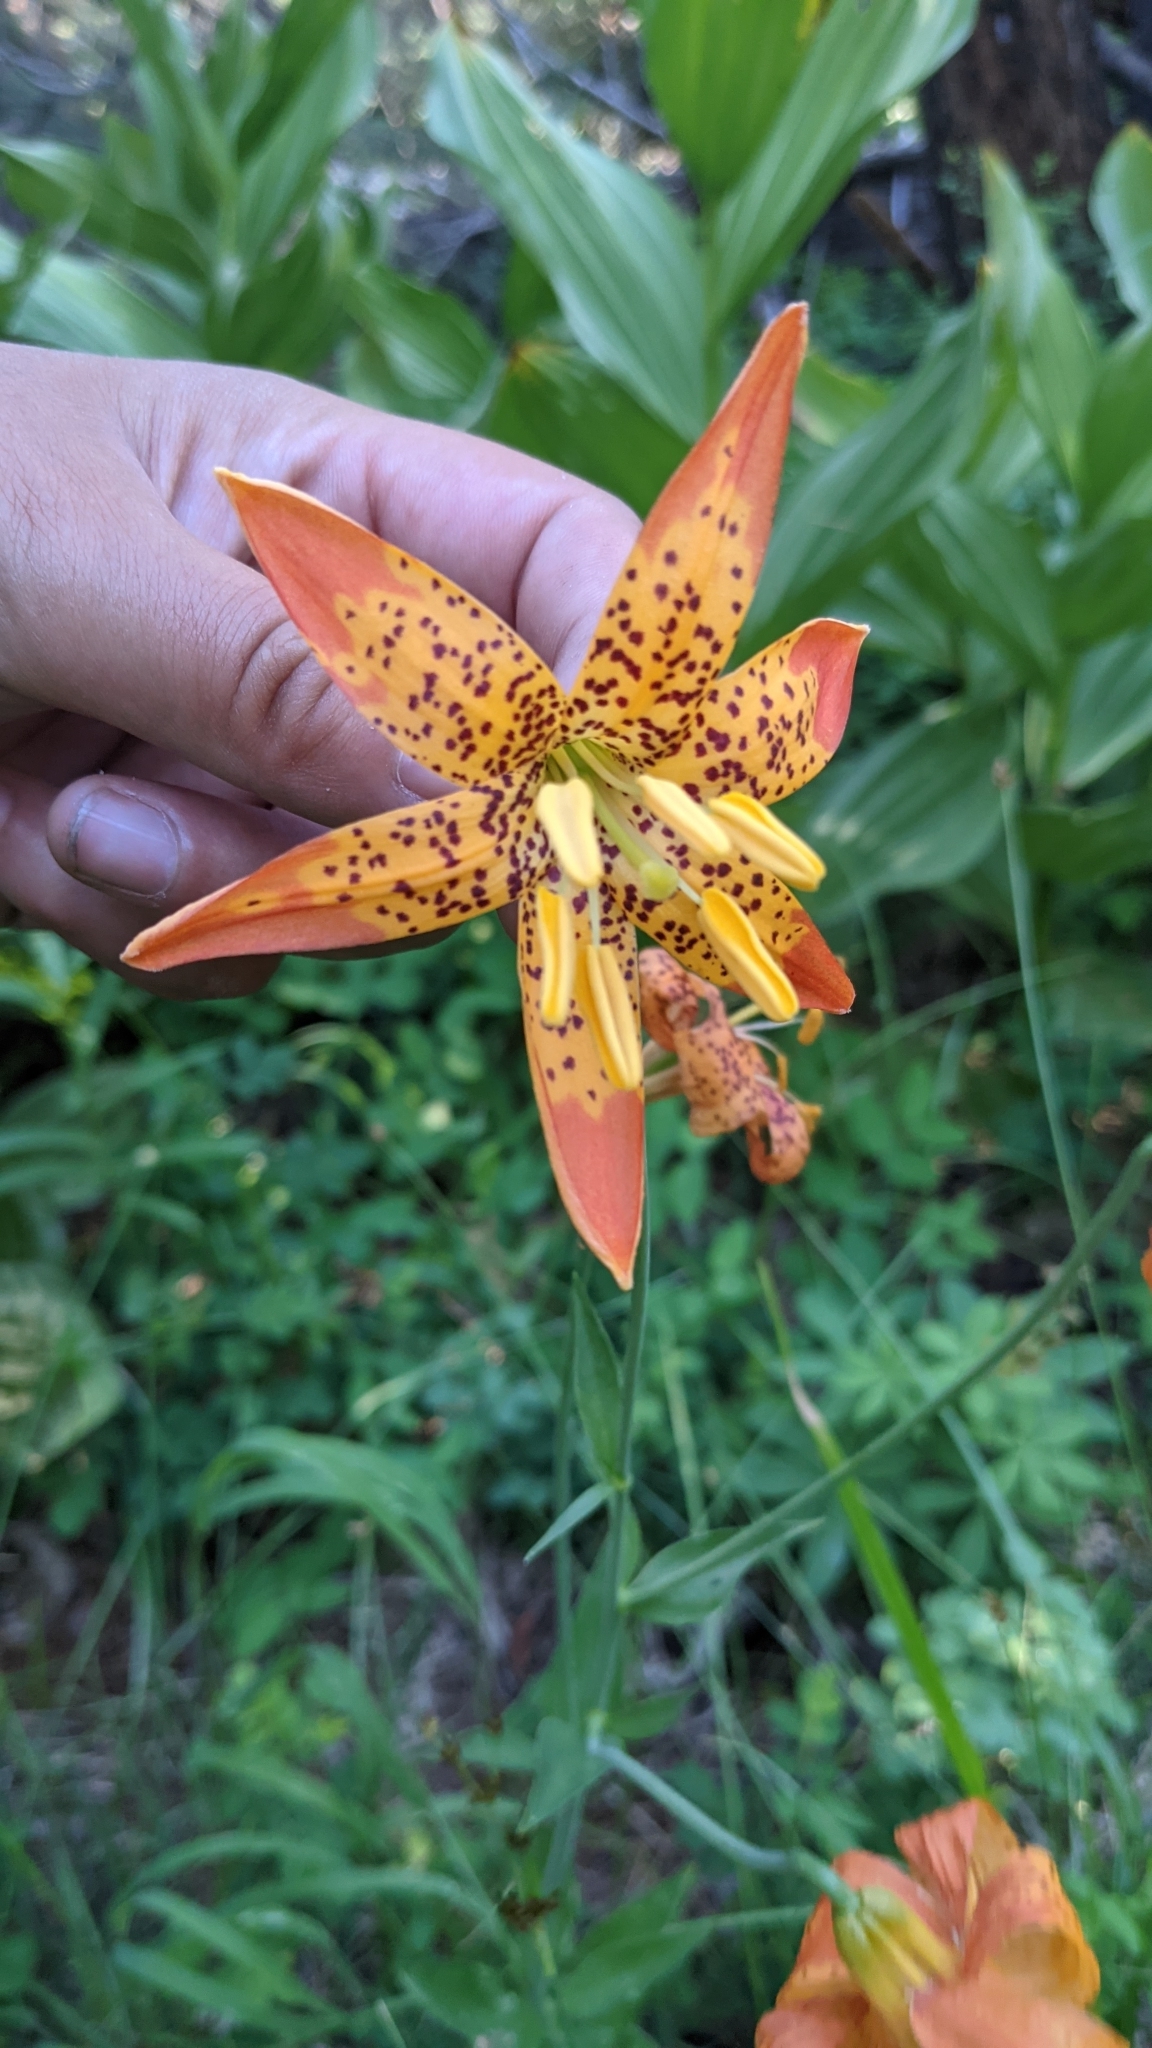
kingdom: Plantae
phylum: Tracheophyta
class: Liliopsida
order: Liliales
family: Liliaceae
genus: Lilium
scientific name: Lilium pardalinum
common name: Panther lily
